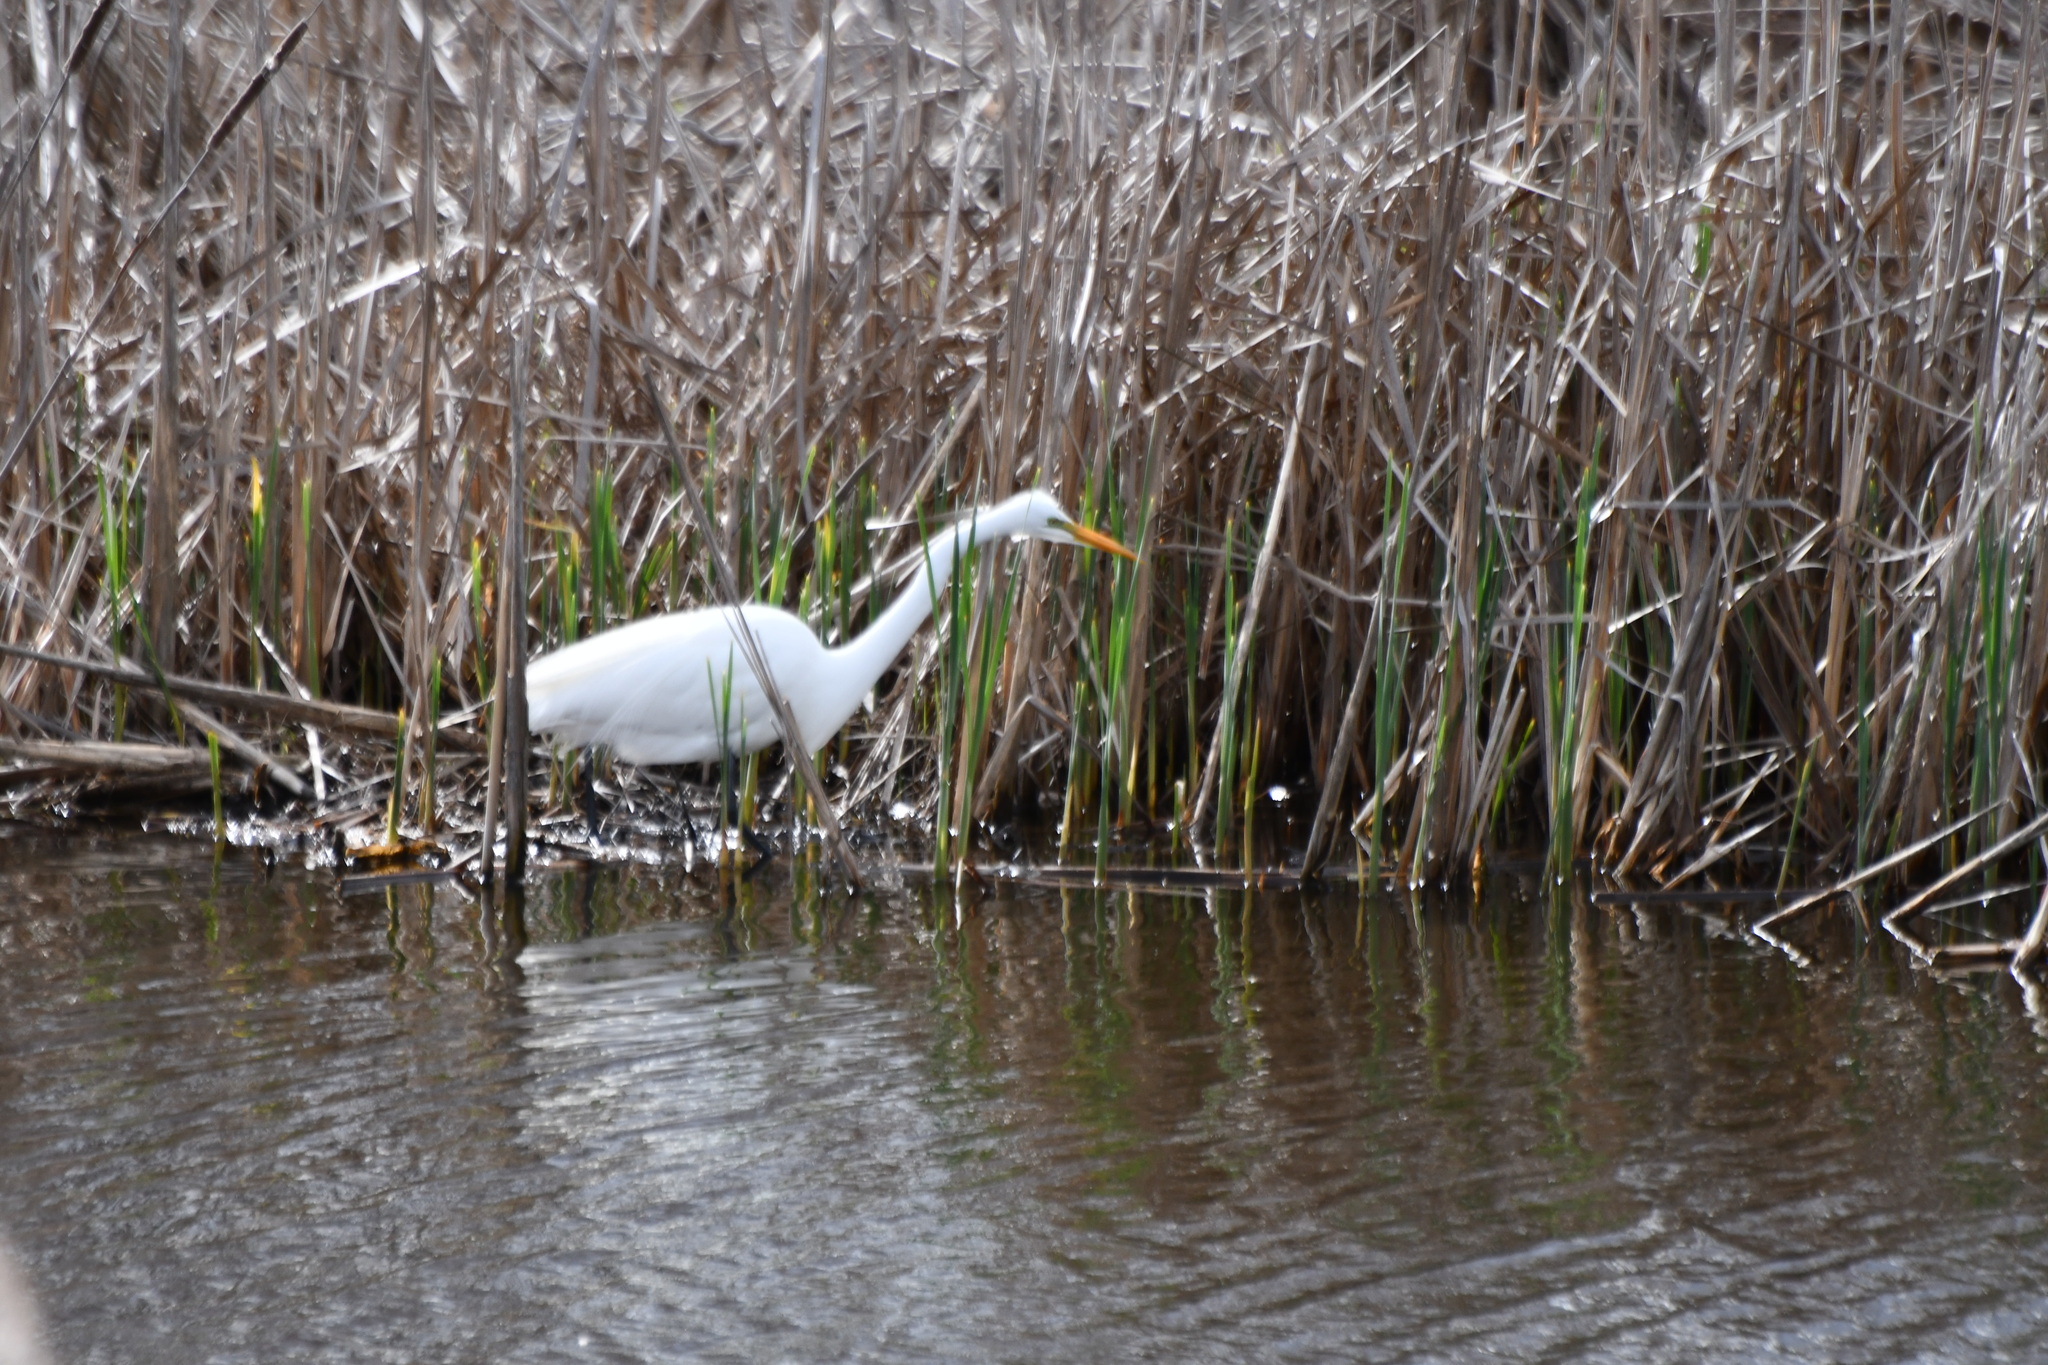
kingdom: Animalia
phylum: Chordata
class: Aves
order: Pelecaniformes
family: Ardeidae
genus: Ardea
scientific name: Ardea alba
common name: Great egret
